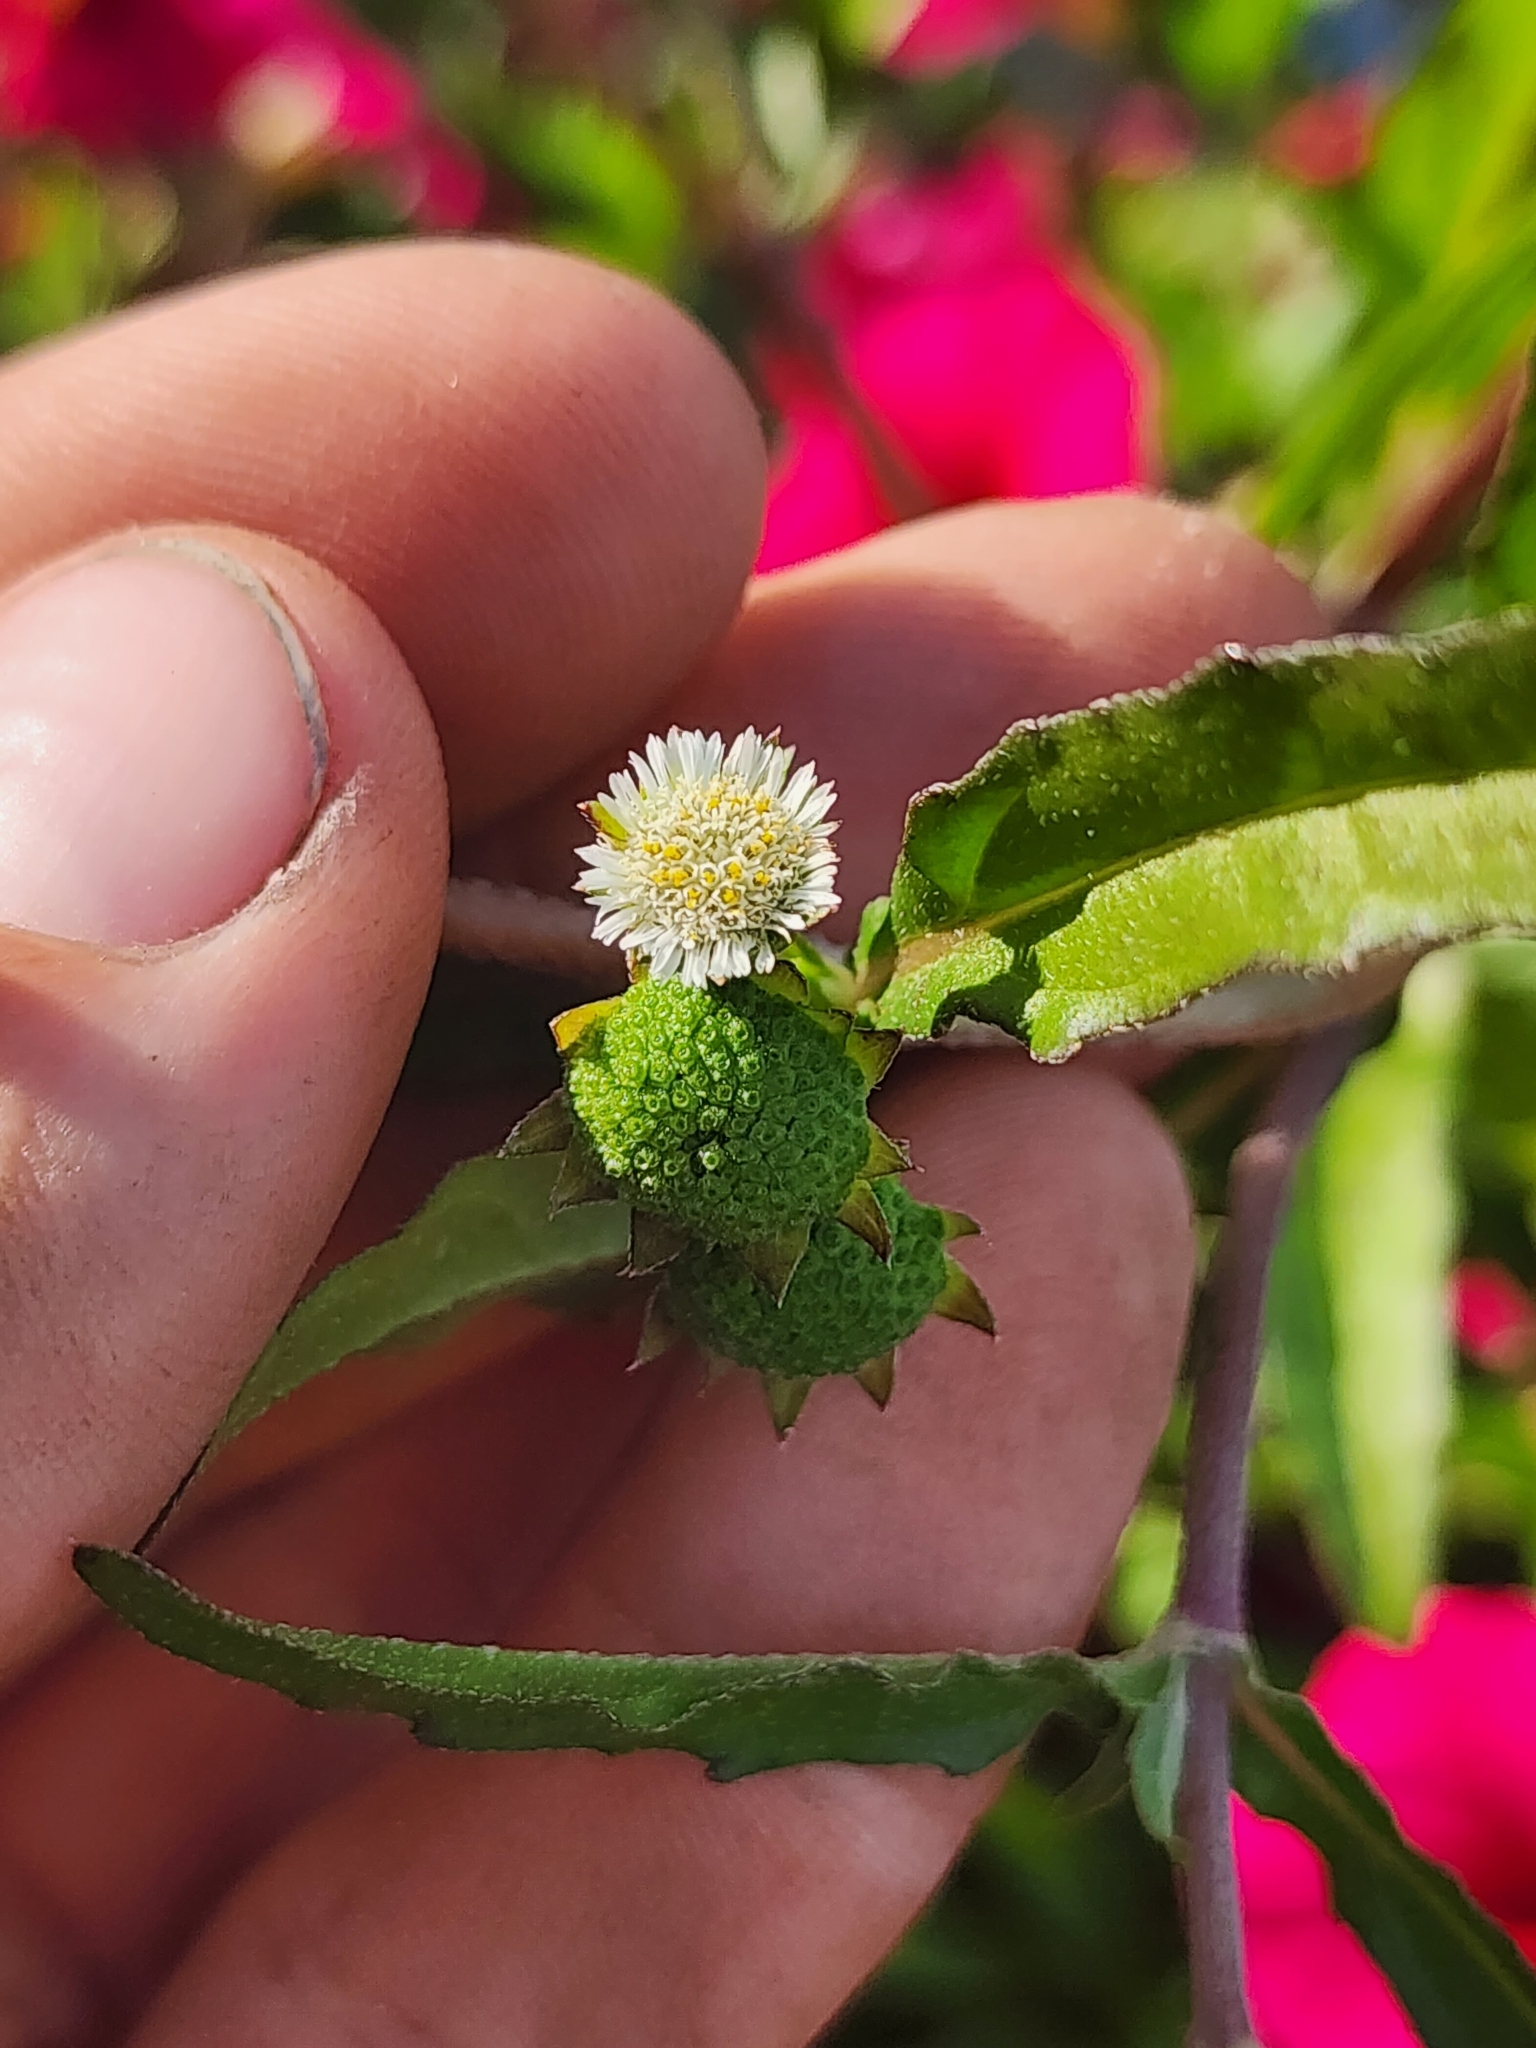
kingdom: Plantae
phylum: Tracheophyta
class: Magnoliopsida
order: Asterales
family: Asteraceae
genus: Eclipta
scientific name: Eclipta prostrata
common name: False daisy
